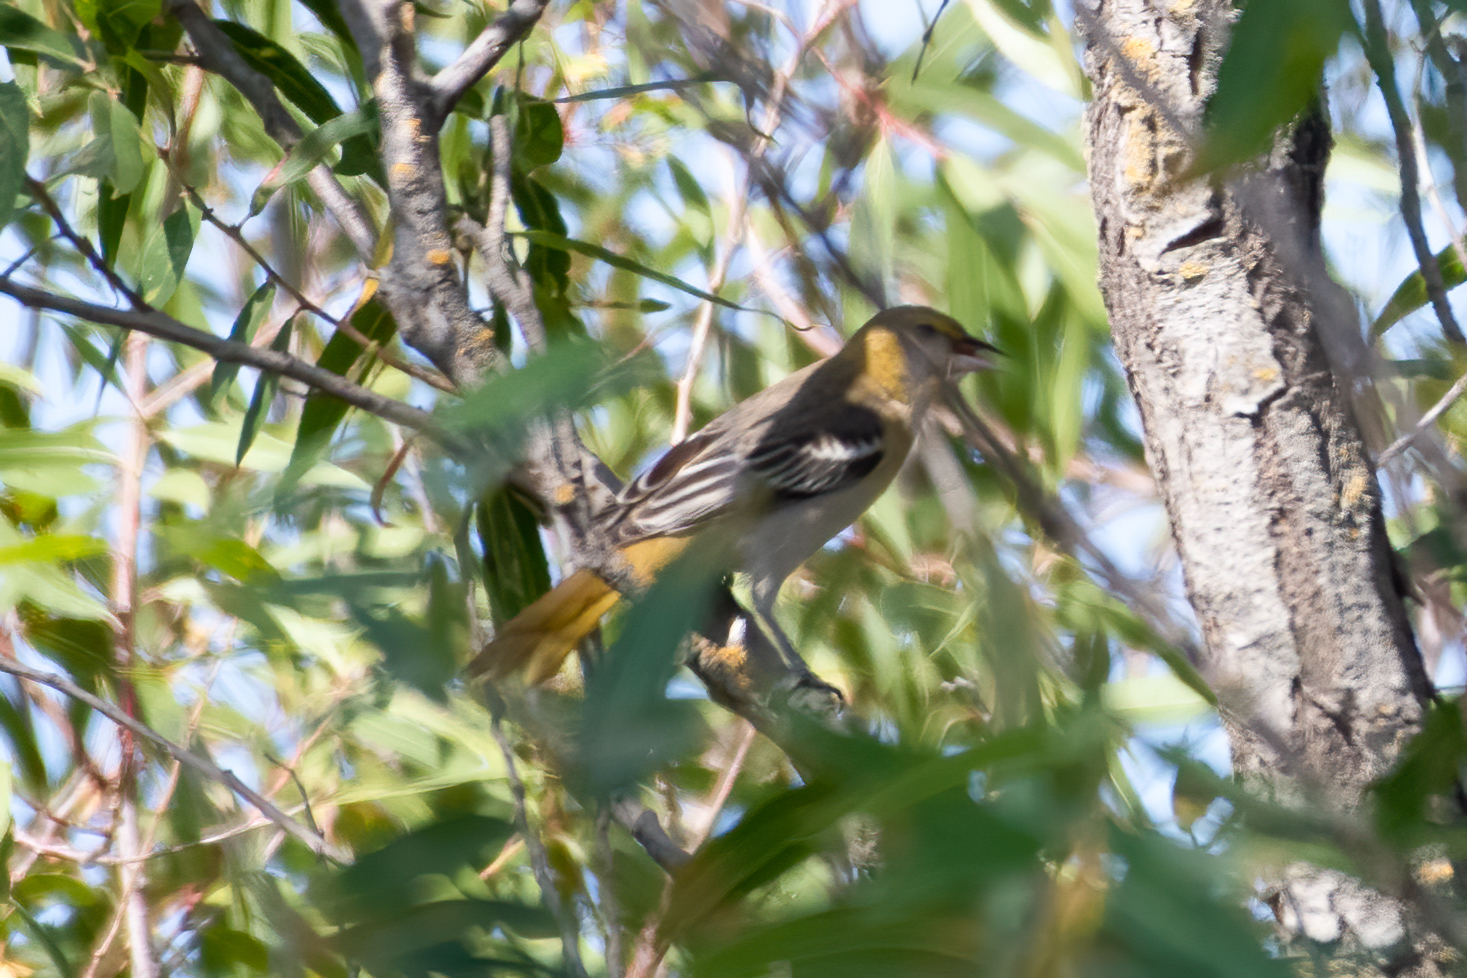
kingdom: Animalia
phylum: Chordata
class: Aves
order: Passeriformes
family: Icteridae
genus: Icterus
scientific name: Icterus bullockii
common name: Bullock's oriole
